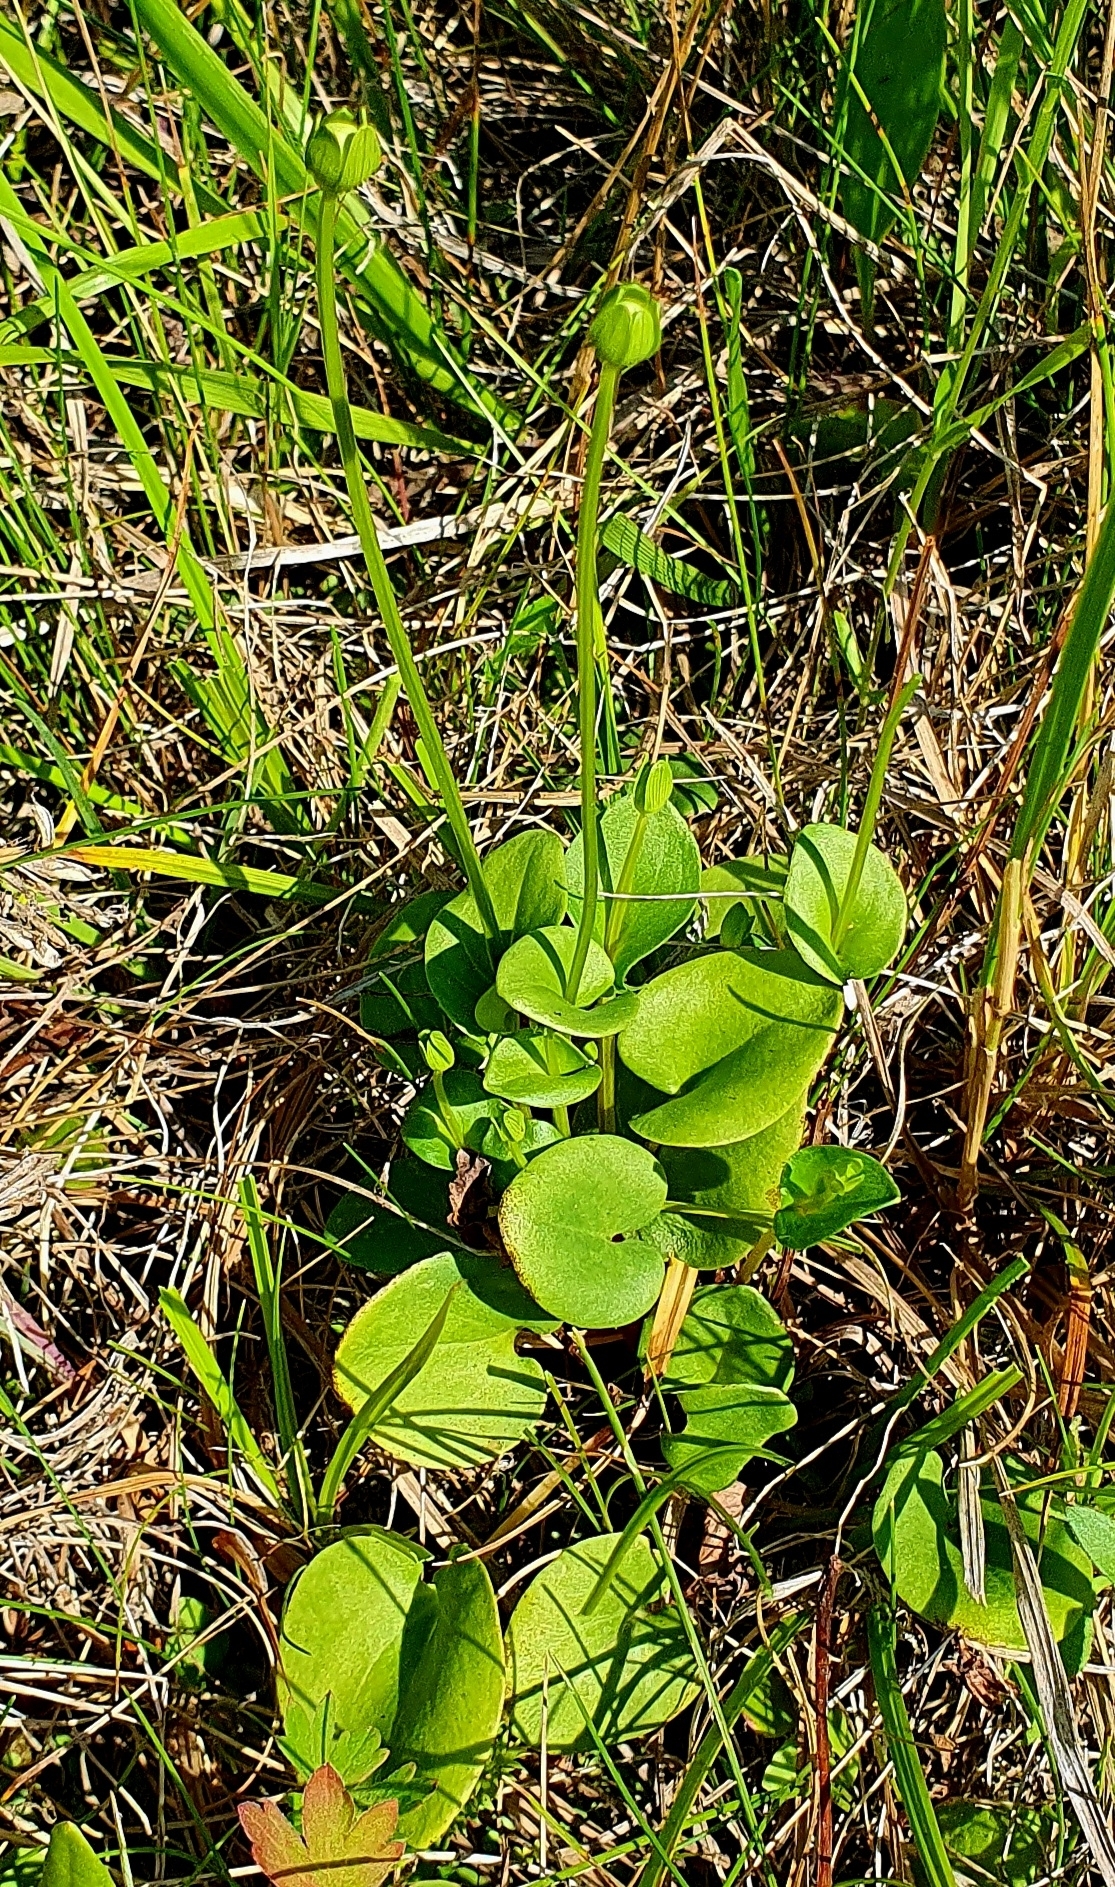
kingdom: Plantae
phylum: Tracheophyta
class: Magnoliopsida
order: Celastrales
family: Parnassiaceae
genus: Parnassia
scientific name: Parnassia palustris
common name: Grass-of-parnassus
